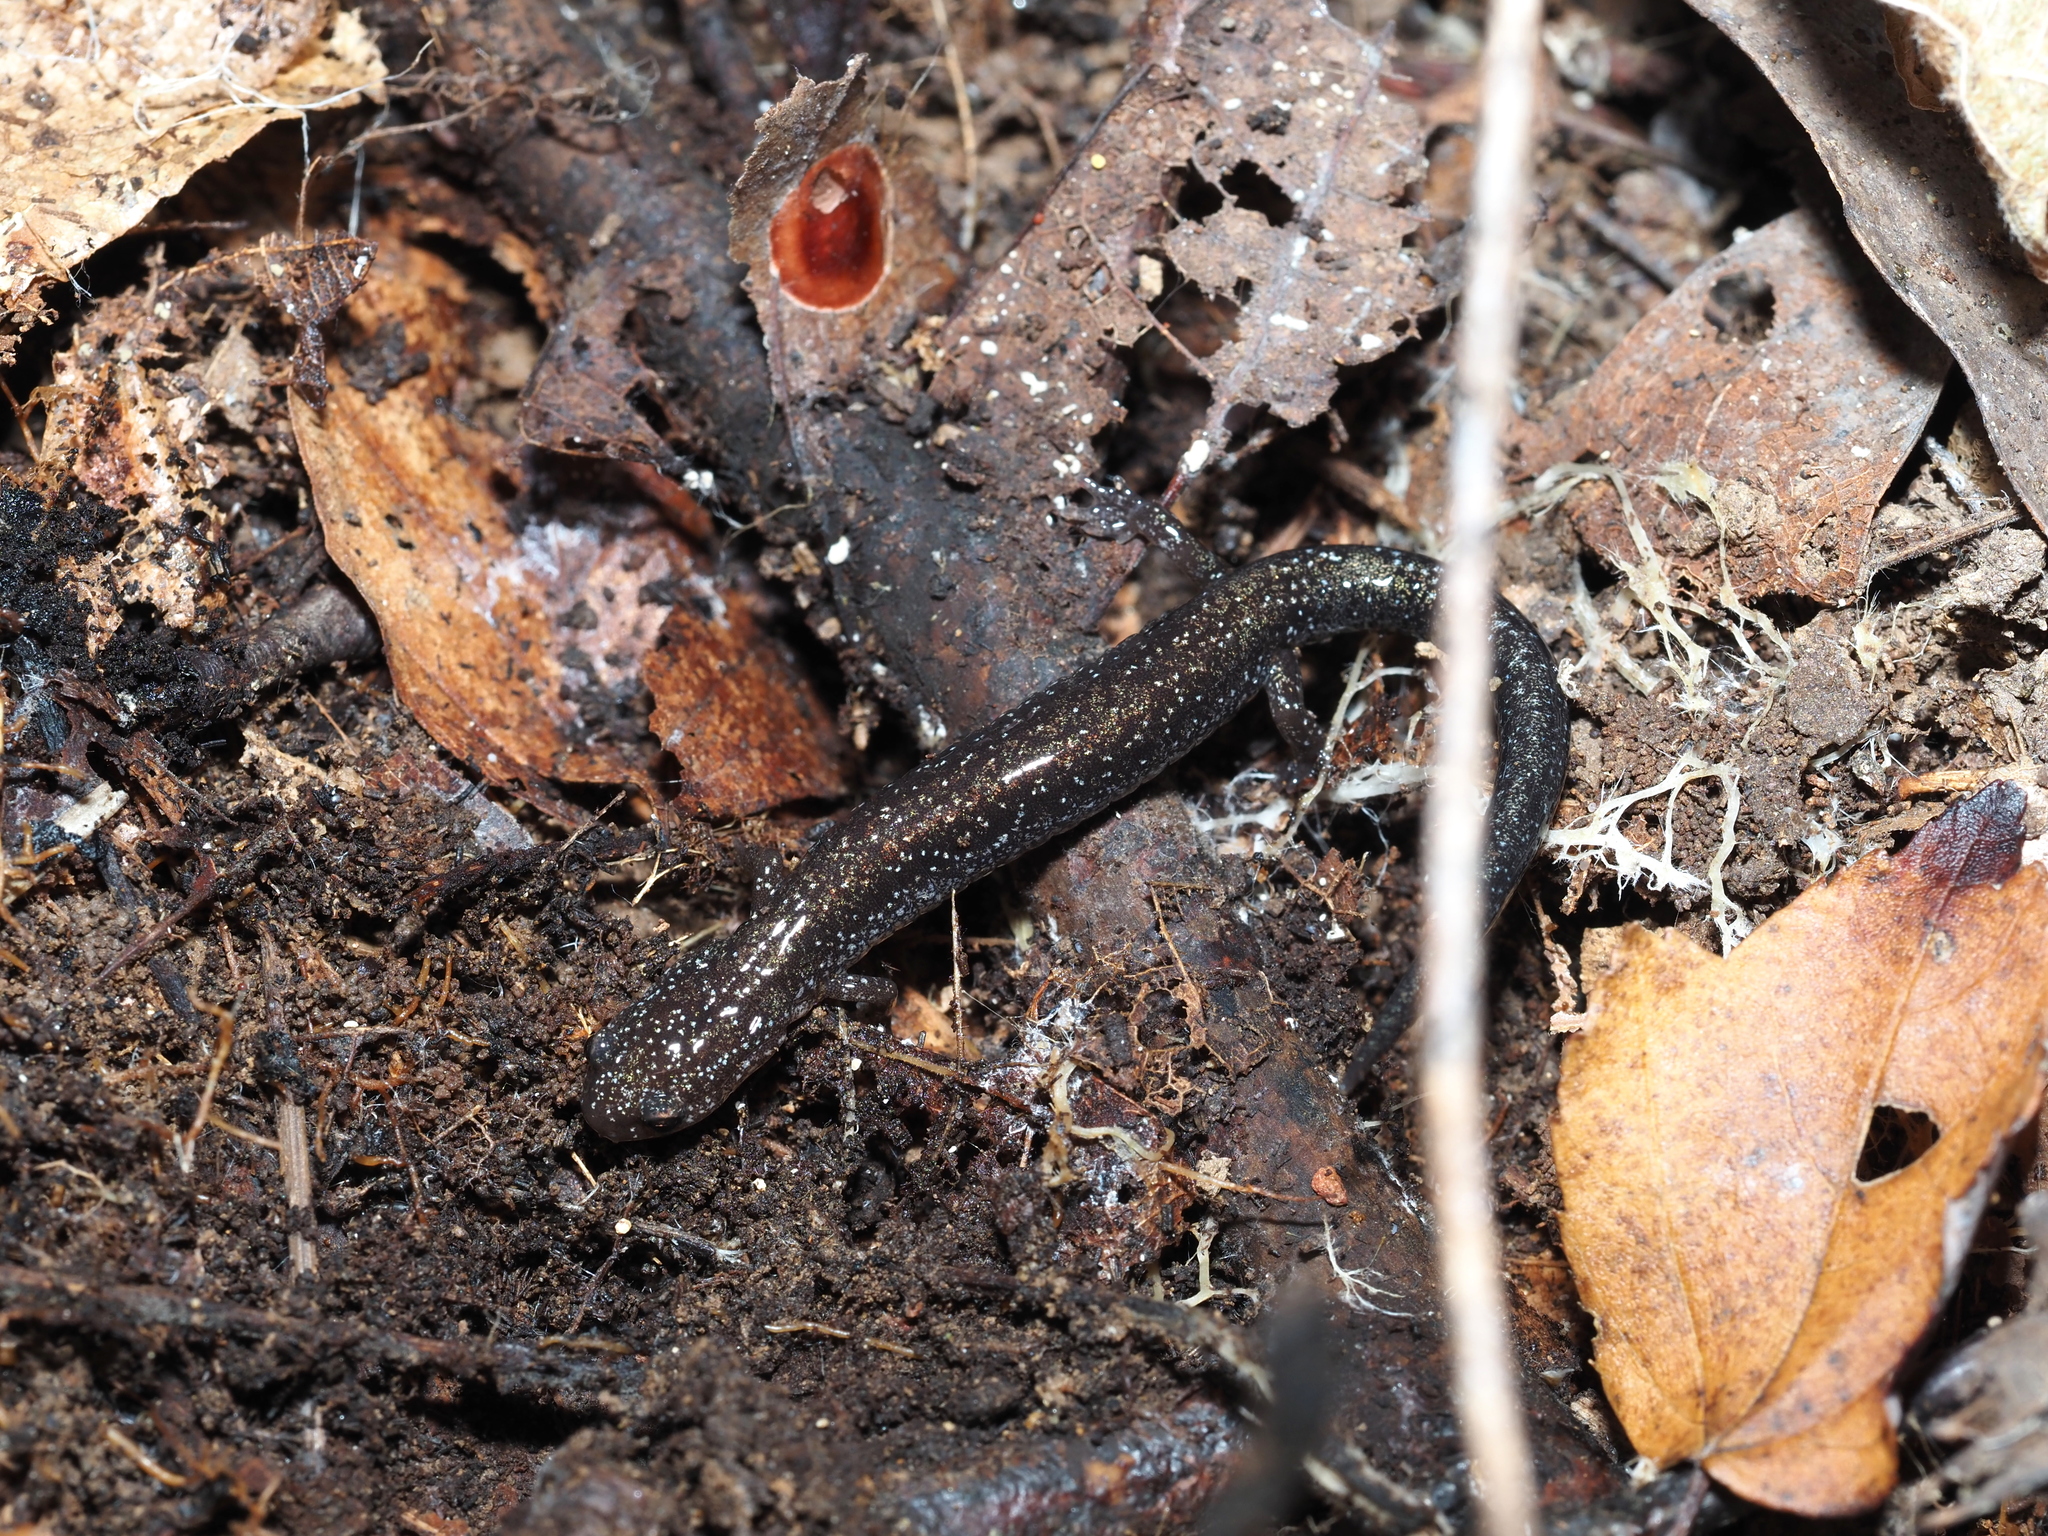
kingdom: Animalia
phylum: Chordata
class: Amphibia
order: Caudata
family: Plethodontidae
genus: Plethodon
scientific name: Plethodon cinereus
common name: Redback salamander
